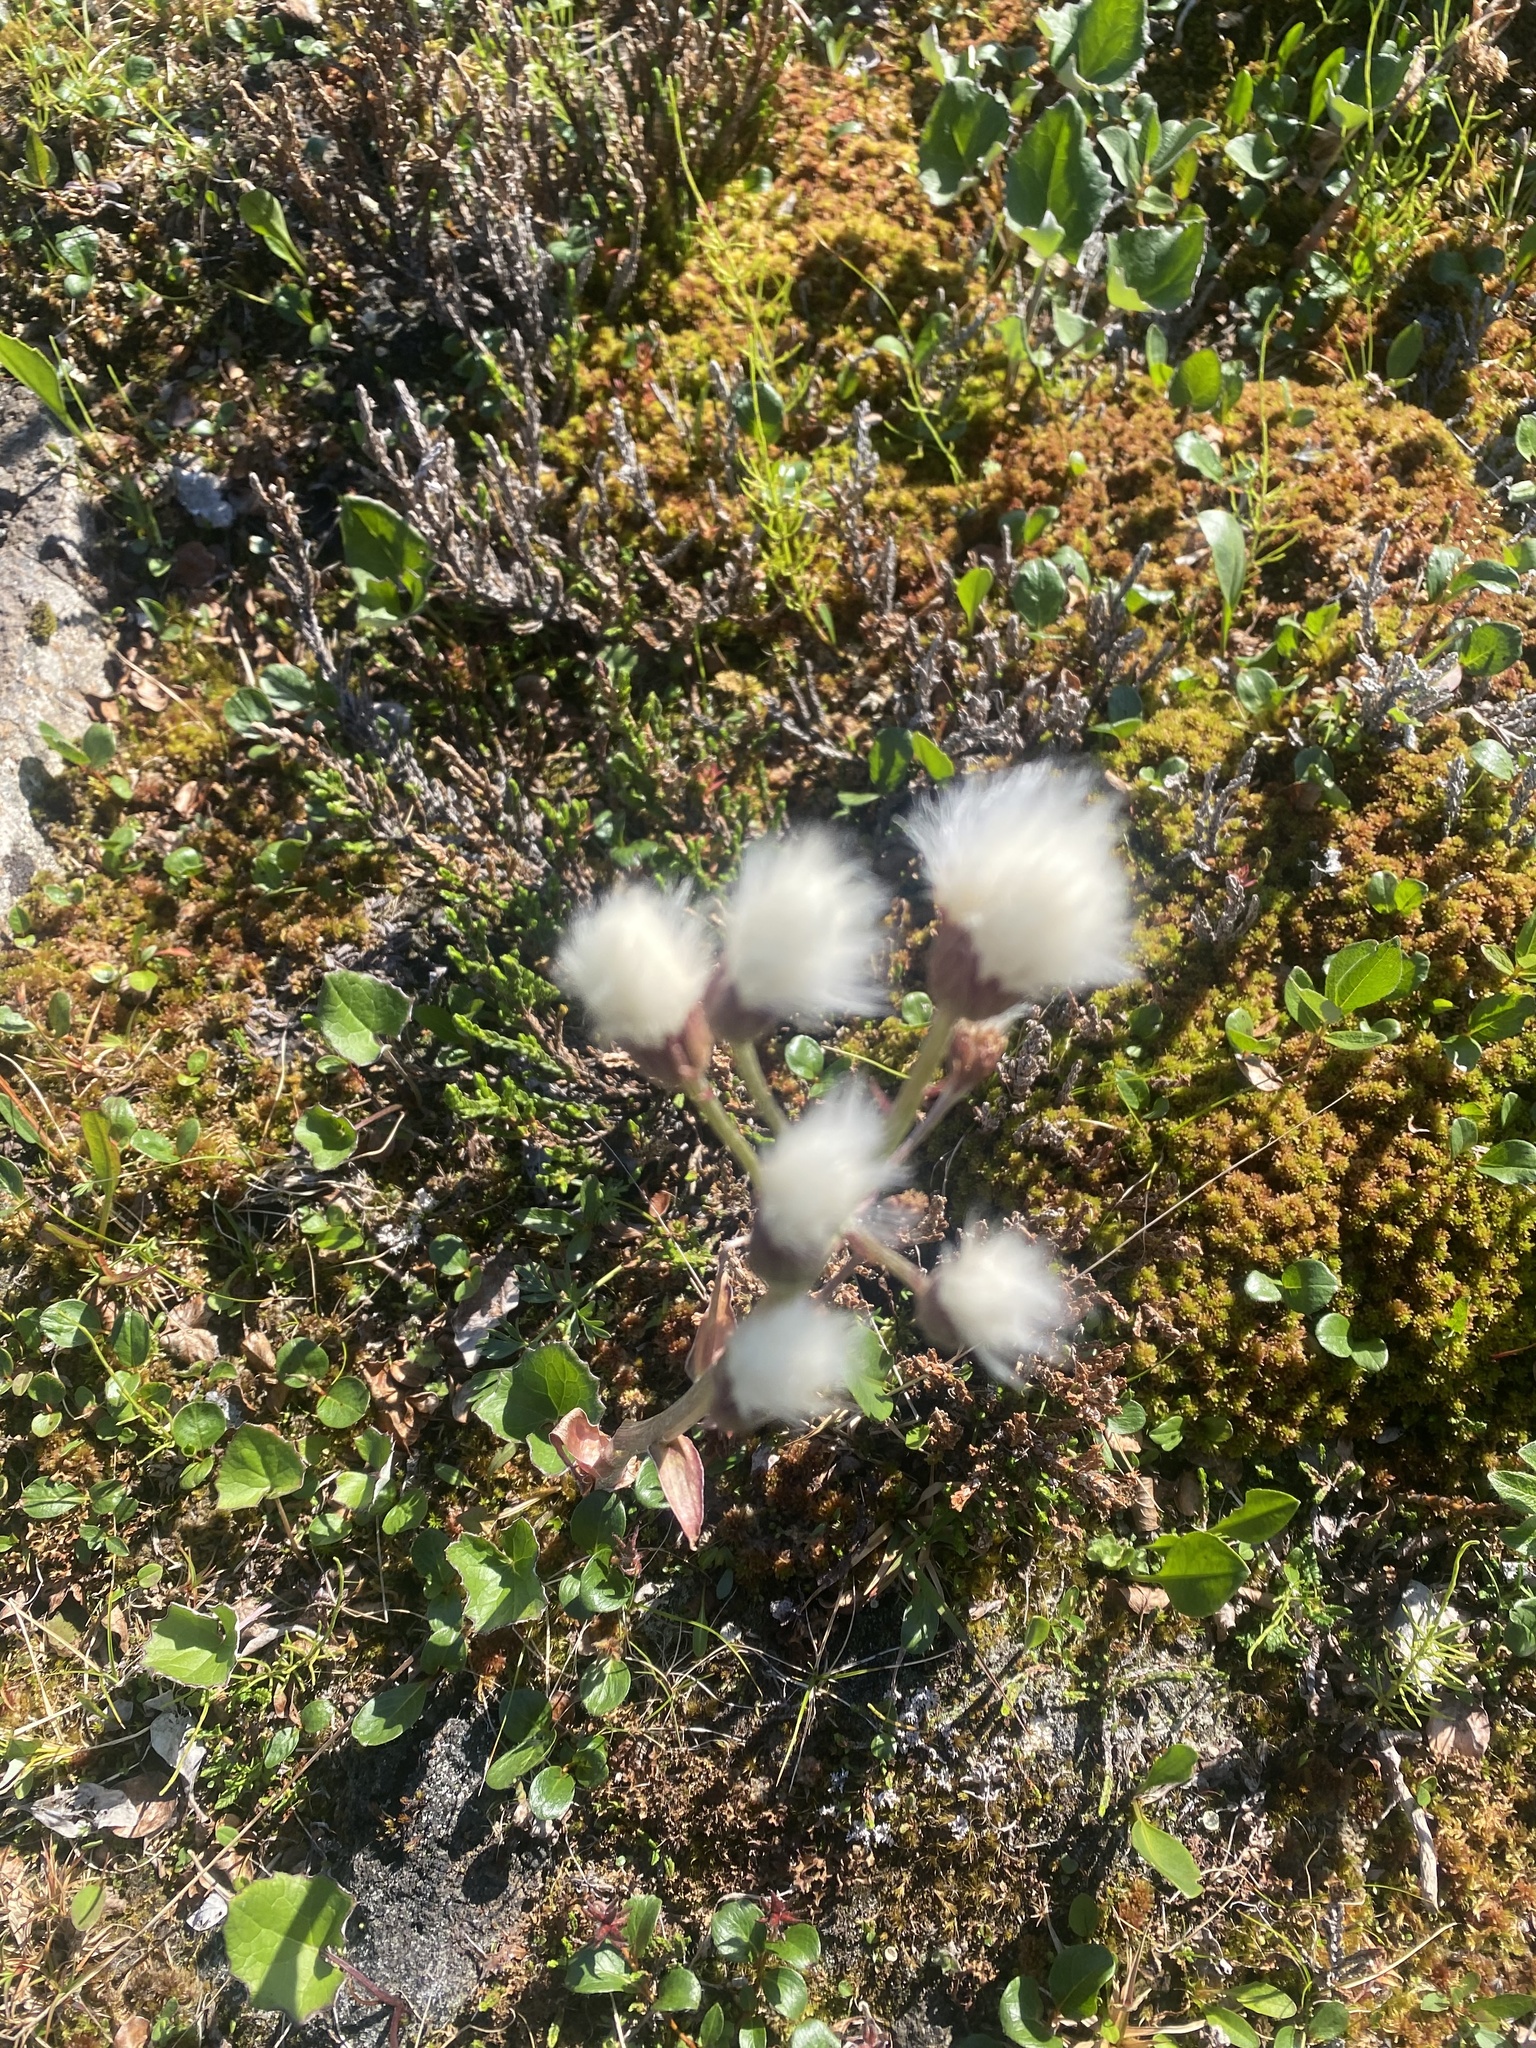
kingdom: Plantae
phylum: Tracheophyta
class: Magnoliopsida
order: Asterales
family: Asteraceae
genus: Petasites
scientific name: Petasites frigidus
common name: Arctic butterbur
